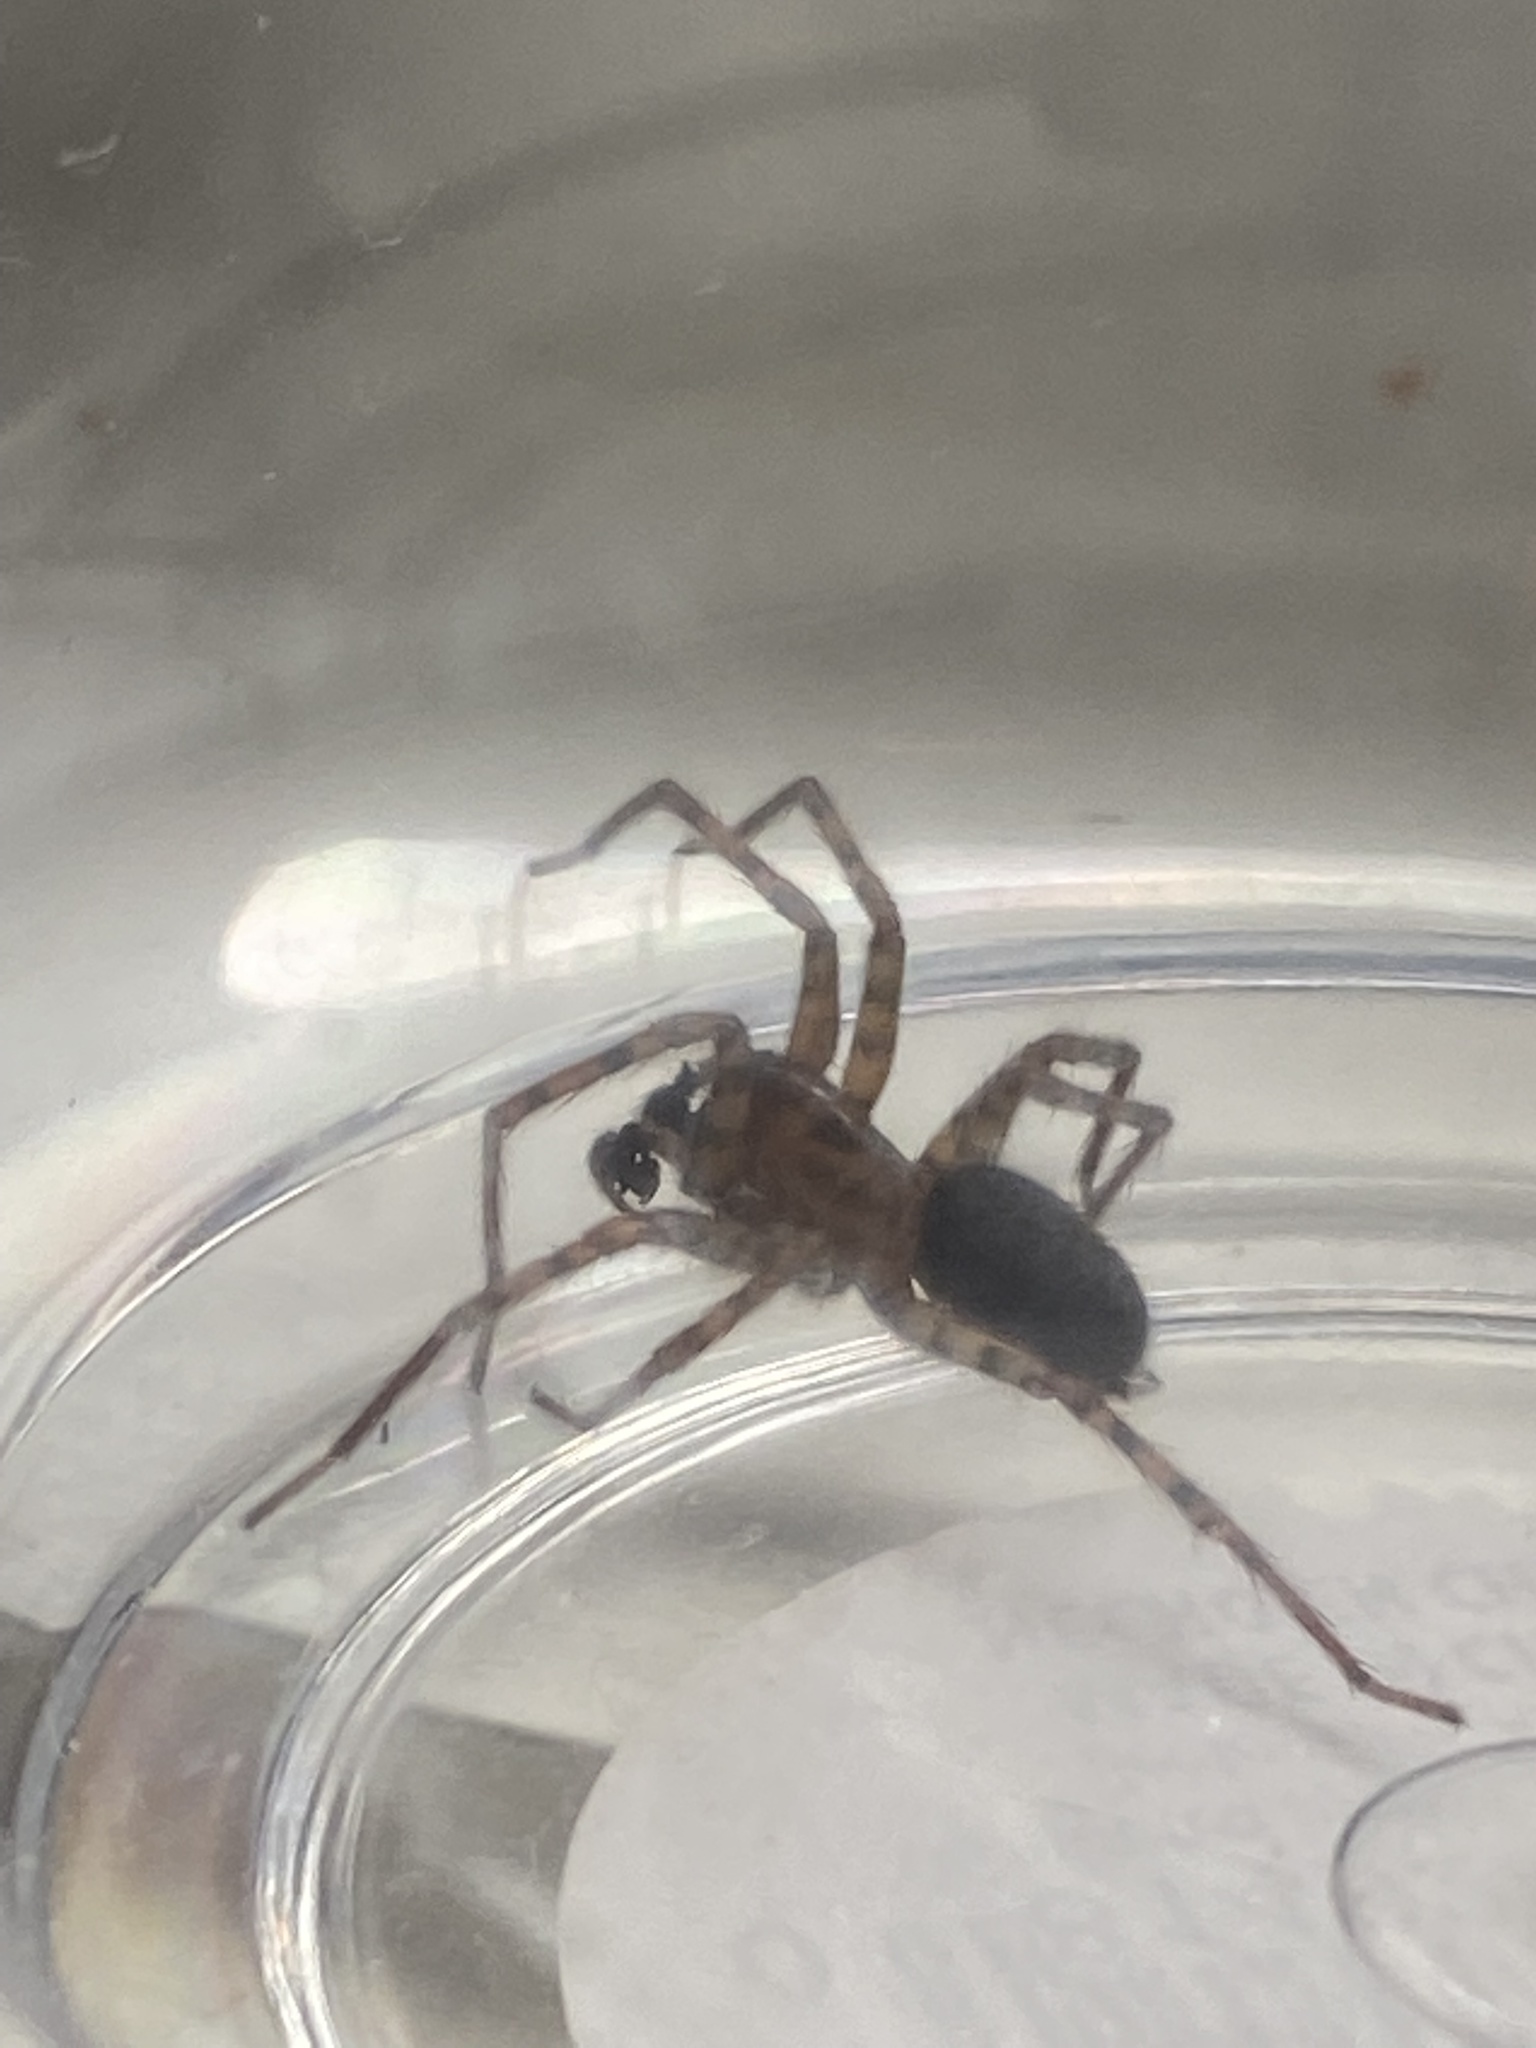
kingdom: Animalia
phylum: Arthropoda
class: Arachnida
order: Araneae
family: Agelenidae
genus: Coras
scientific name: Coras
